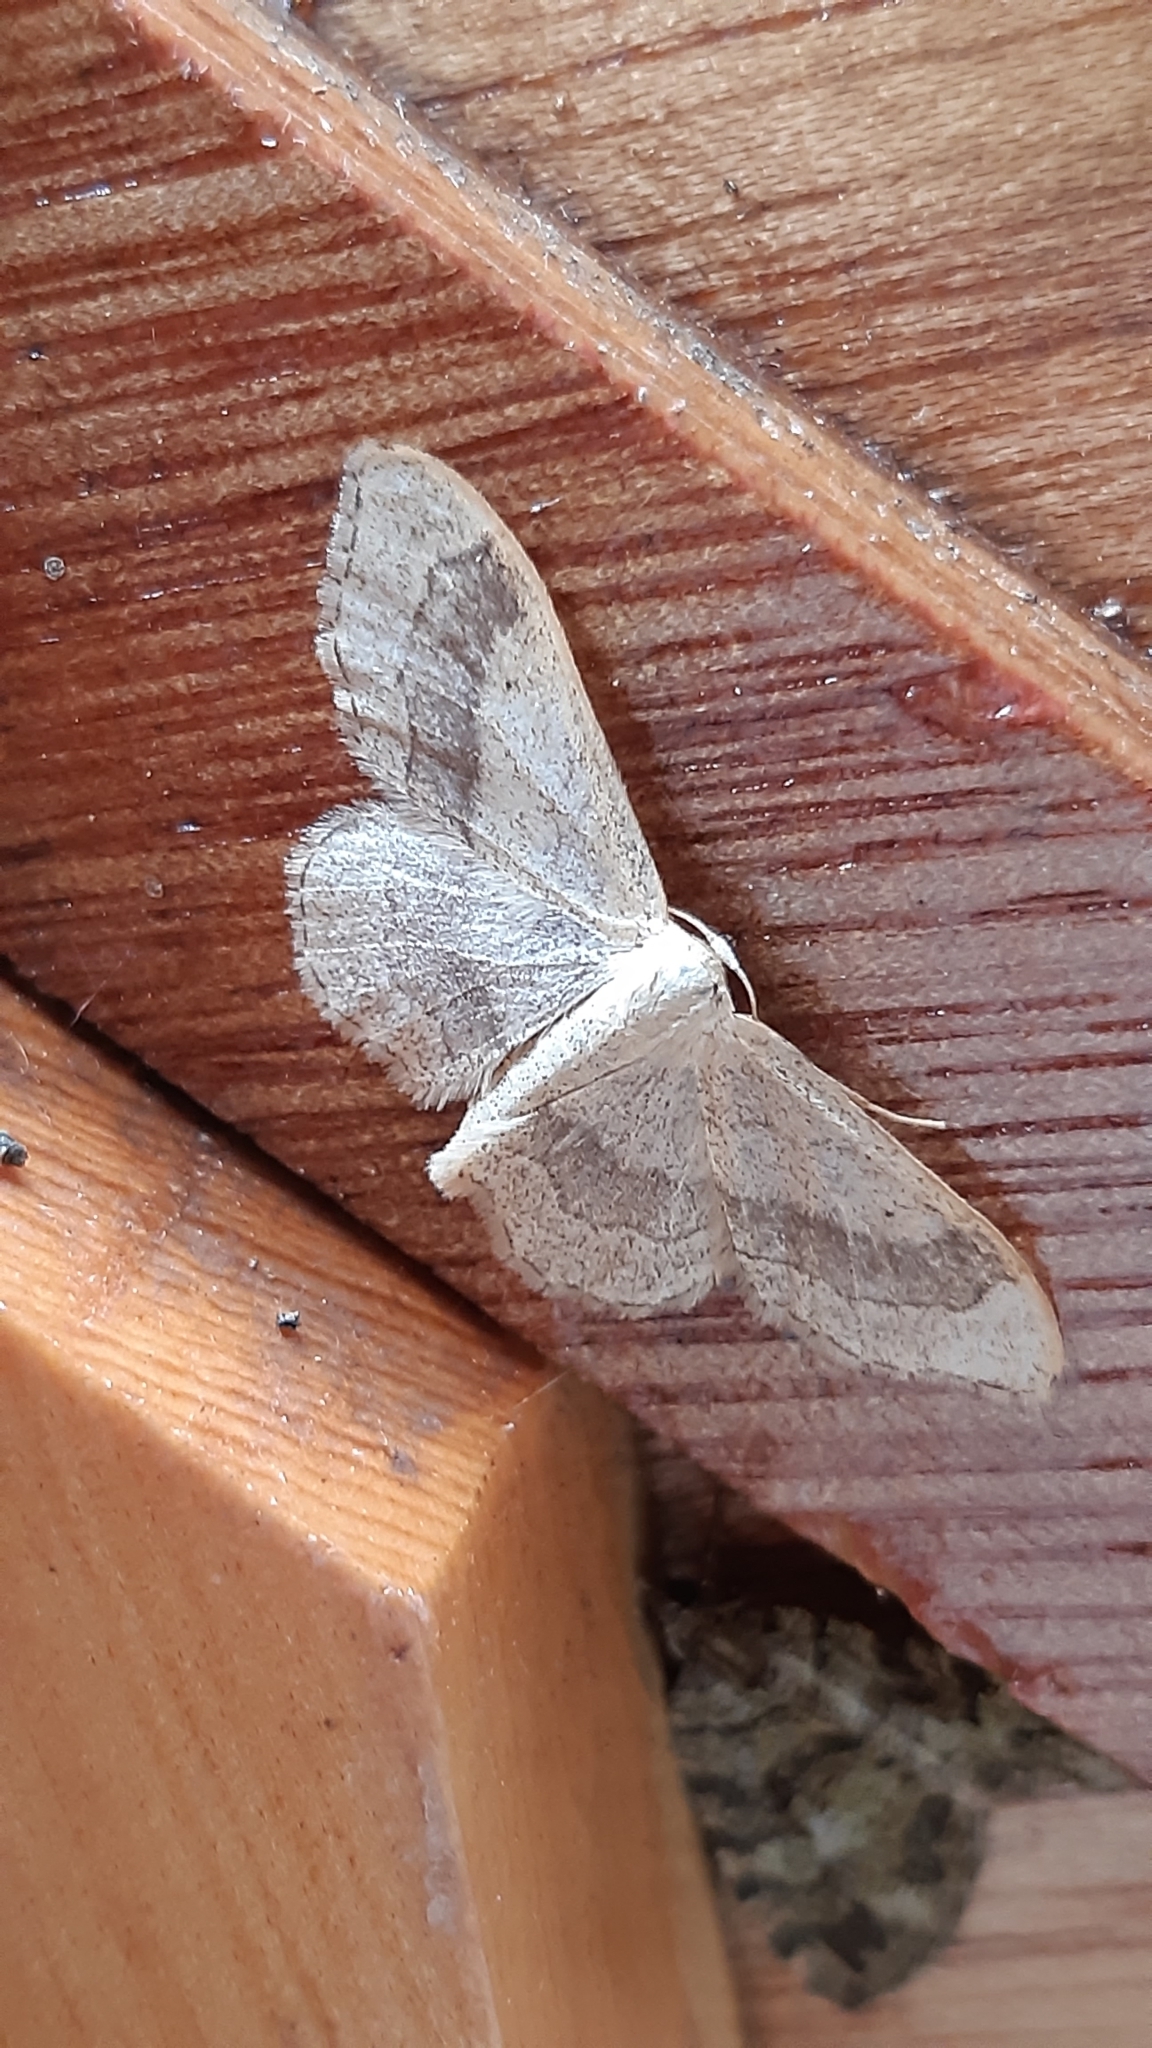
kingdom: Animalia
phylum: Arthropoda
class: Insecta
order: Lepidoptera
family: Geometridae
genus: Idaea
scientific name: Idaea aversata
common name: Riband wave
